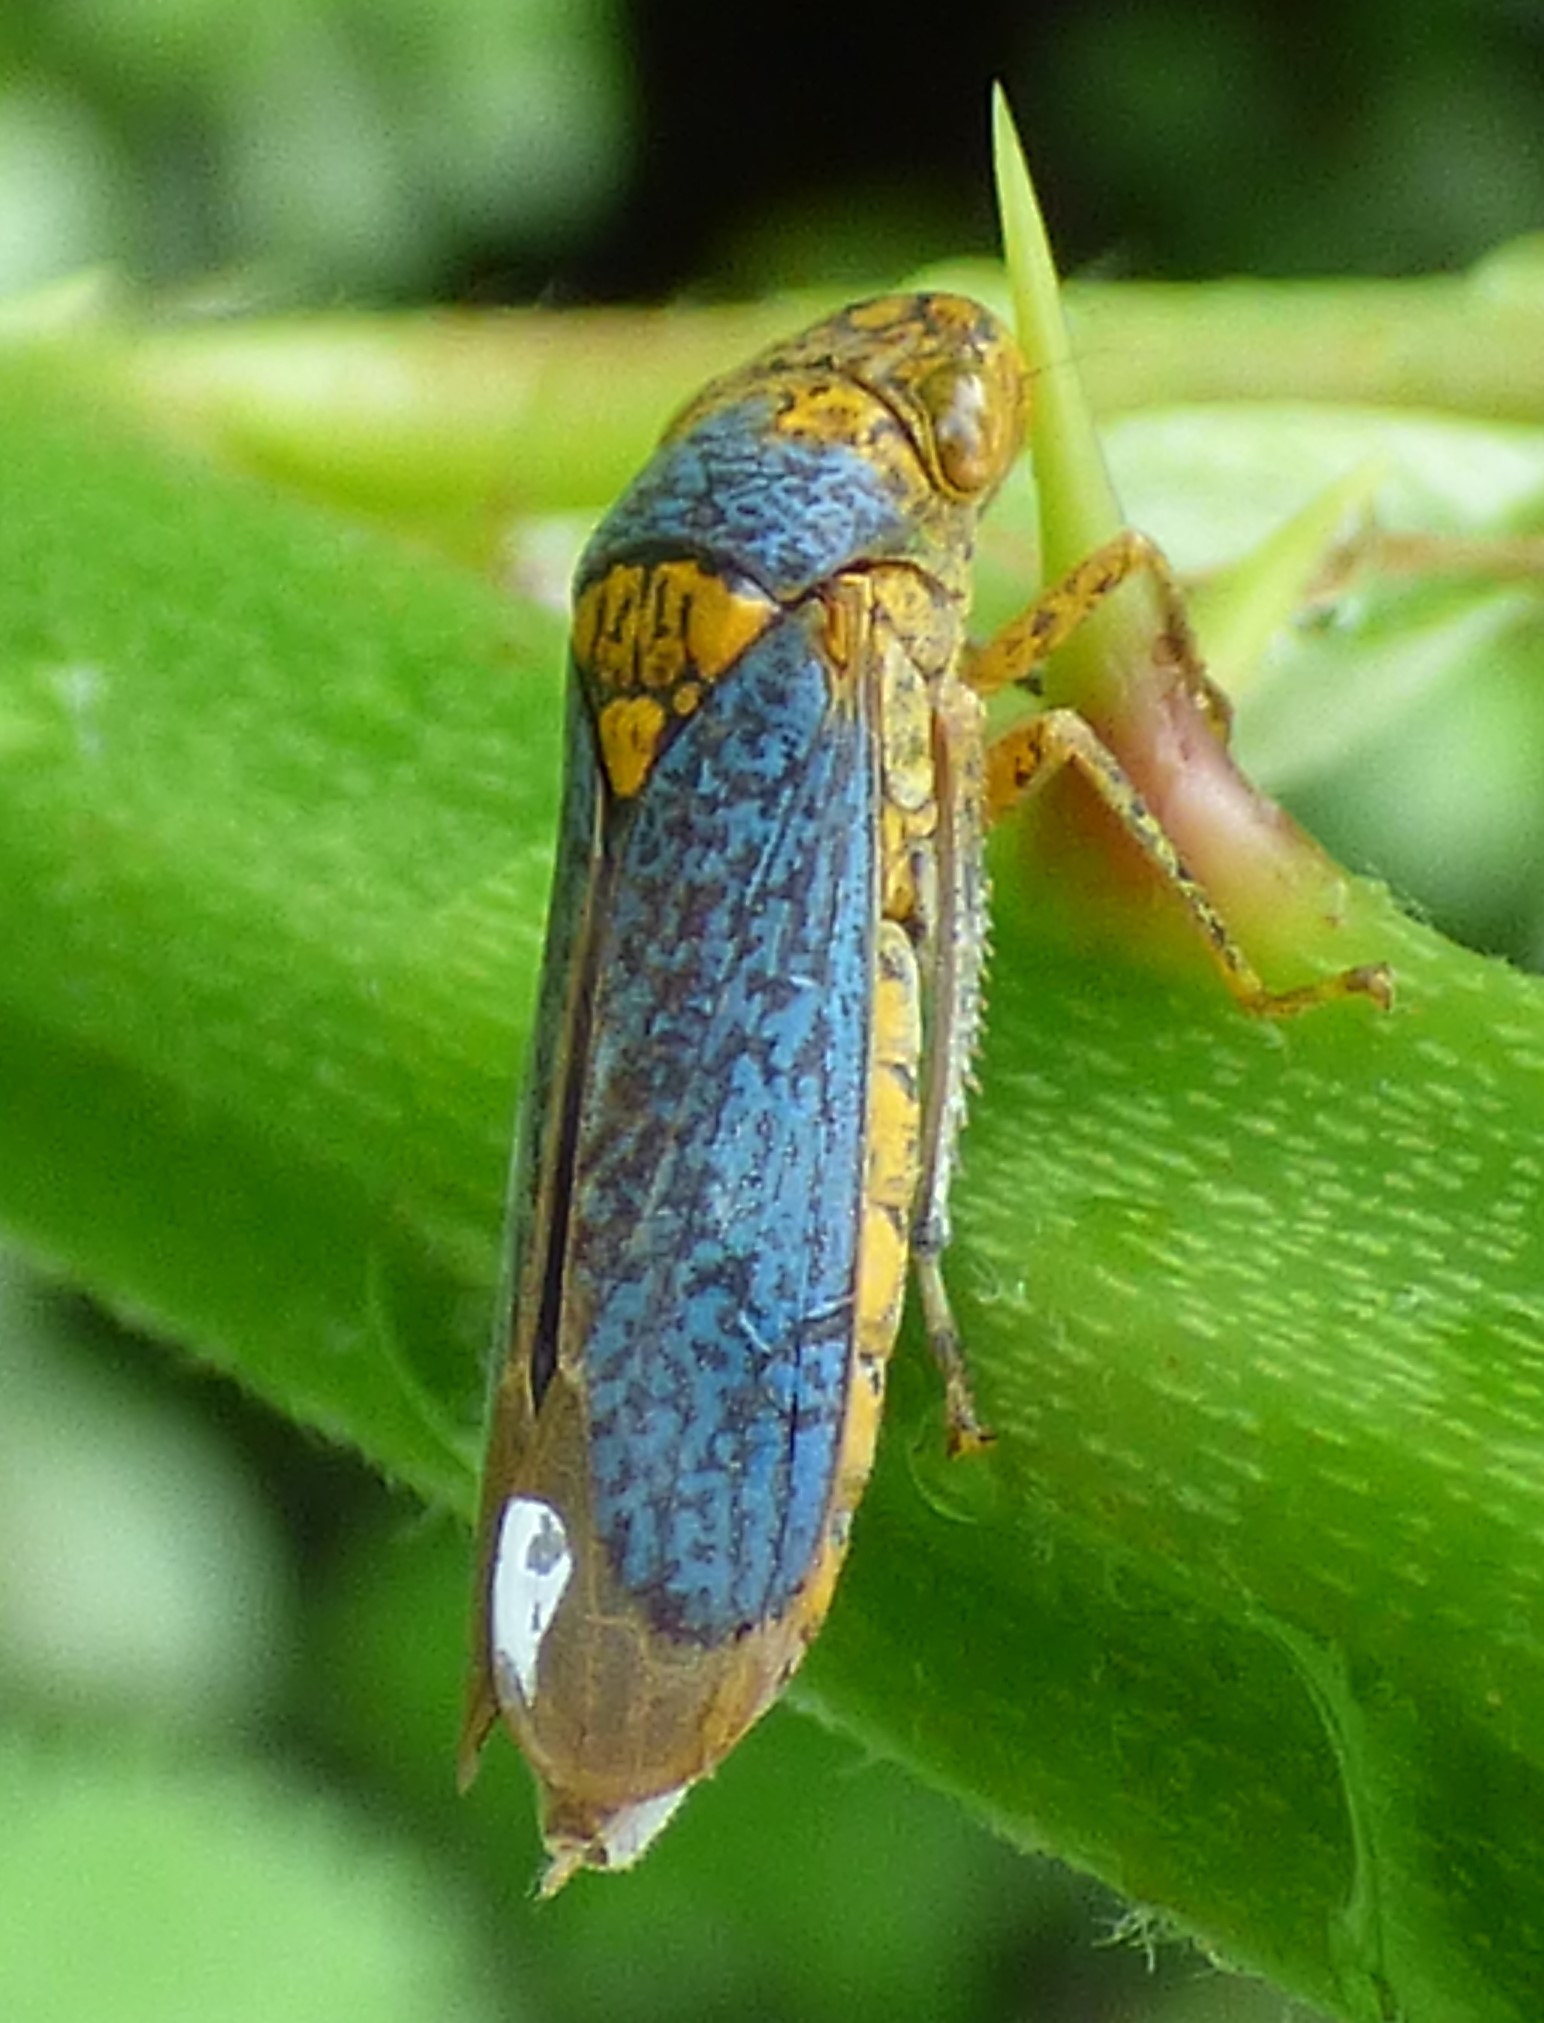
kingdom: Animalia
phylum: Arthropoda
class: Insecta
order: Hemiptera
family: Cicadellidae
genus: Oncometopia
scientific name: Oncometopia orbona
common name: Broad-headed sharpshooter
